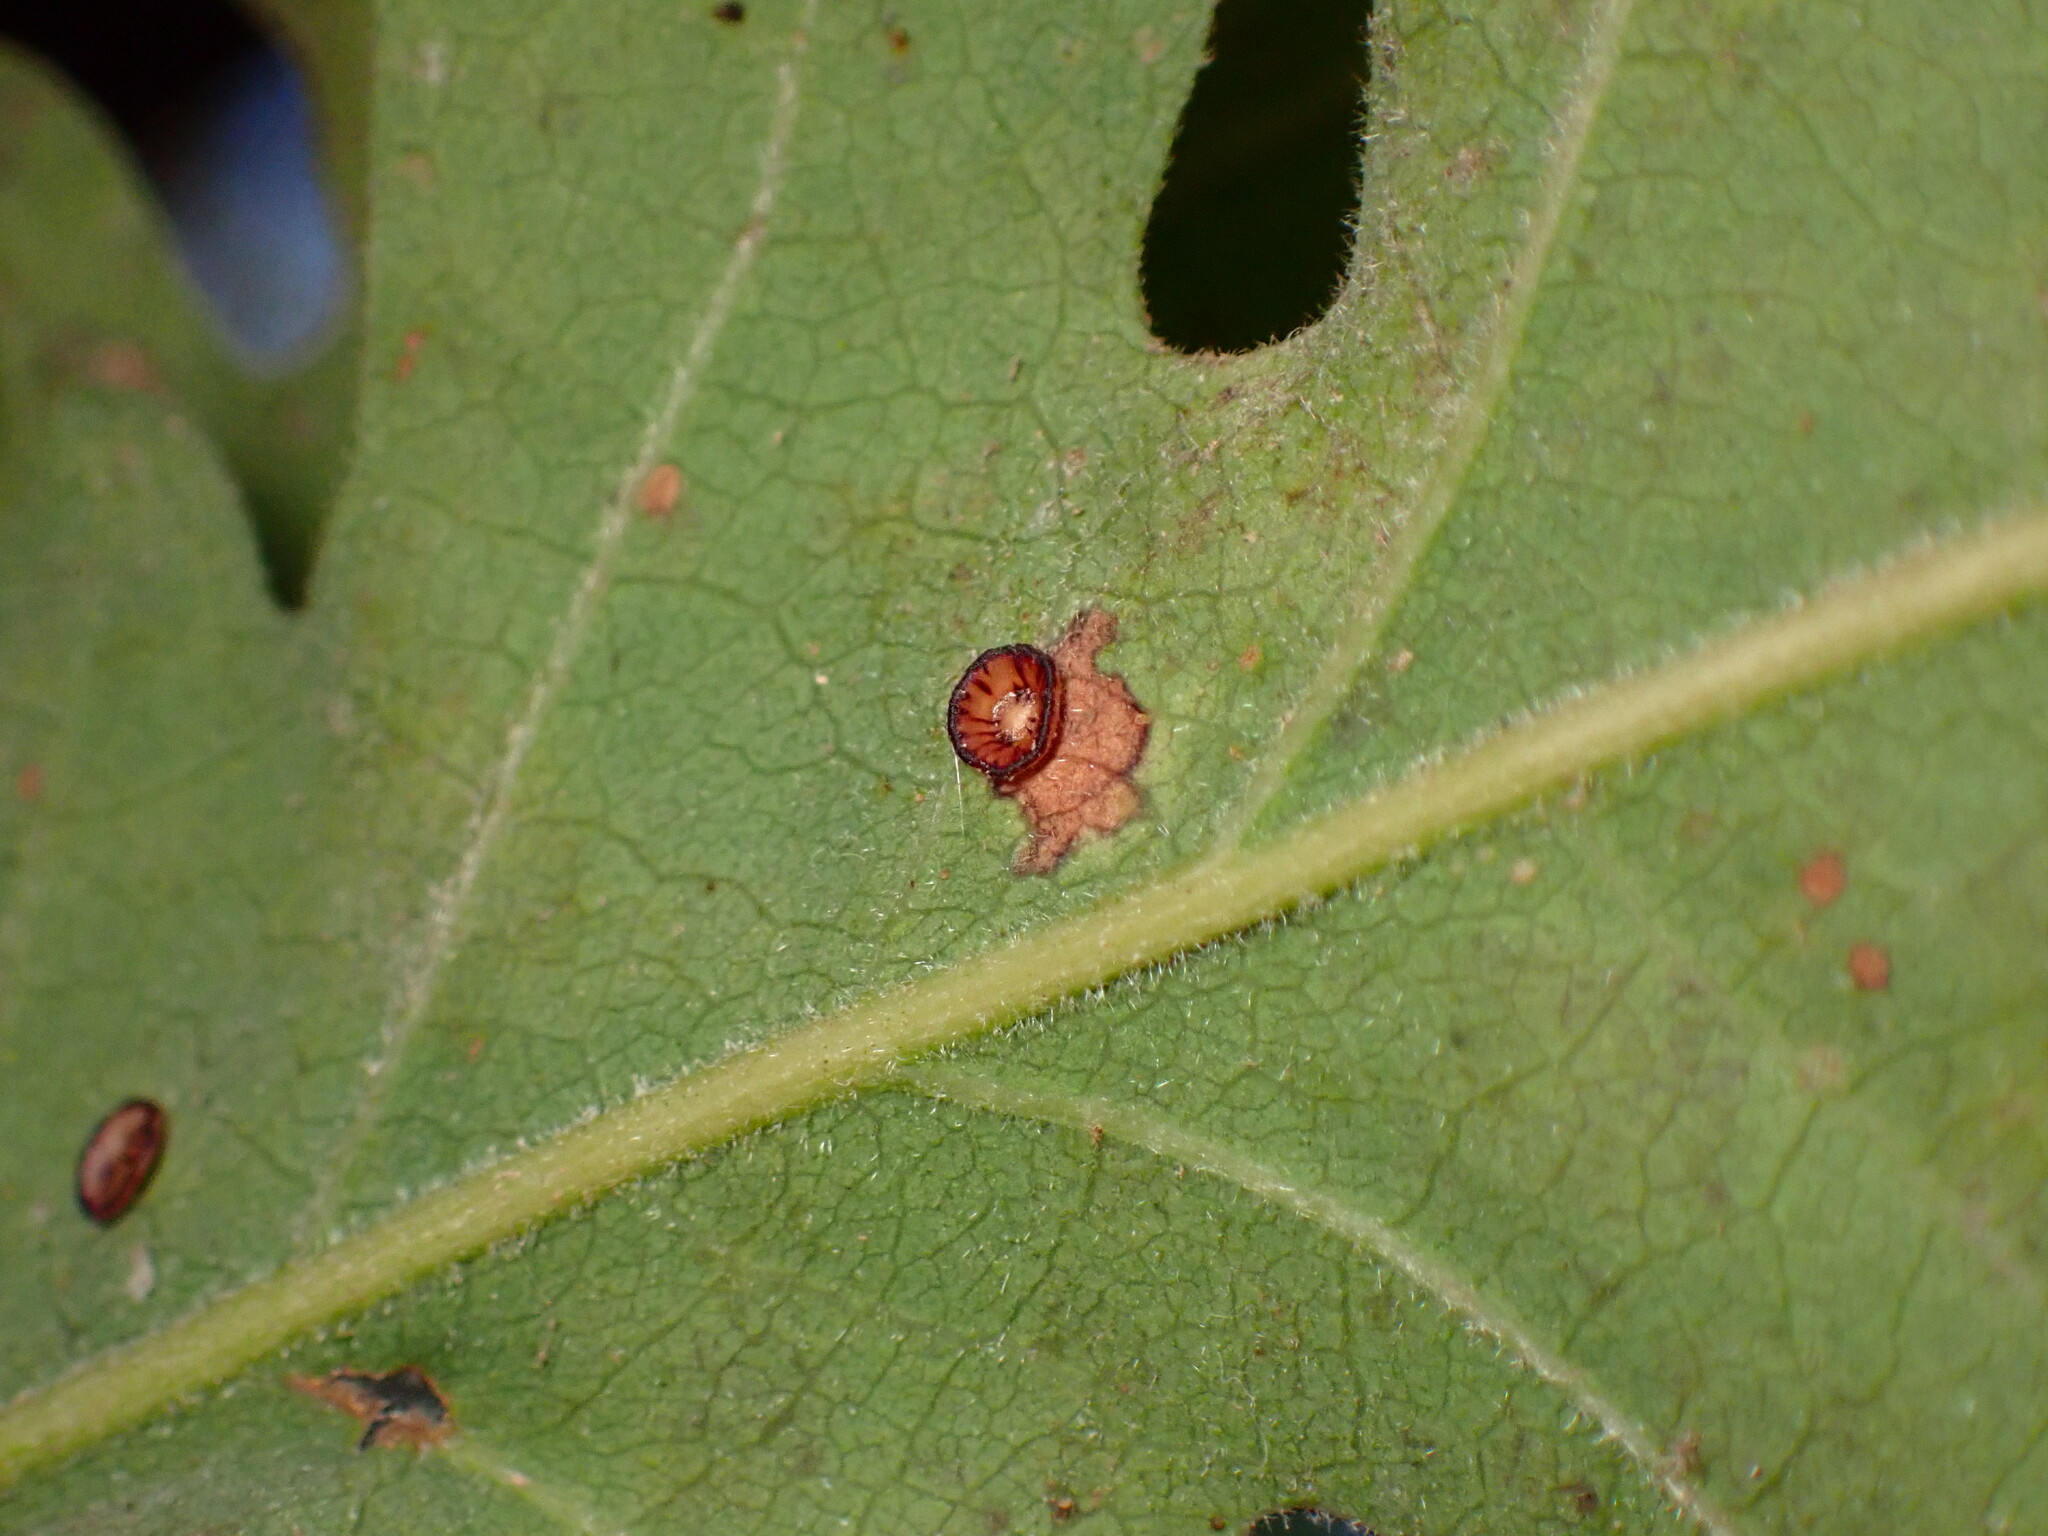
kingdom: Animalia
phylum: Arthropoda
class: Insecta
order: Hymenoptera
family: Cynipidae
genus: Andricus
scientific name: Andricus
